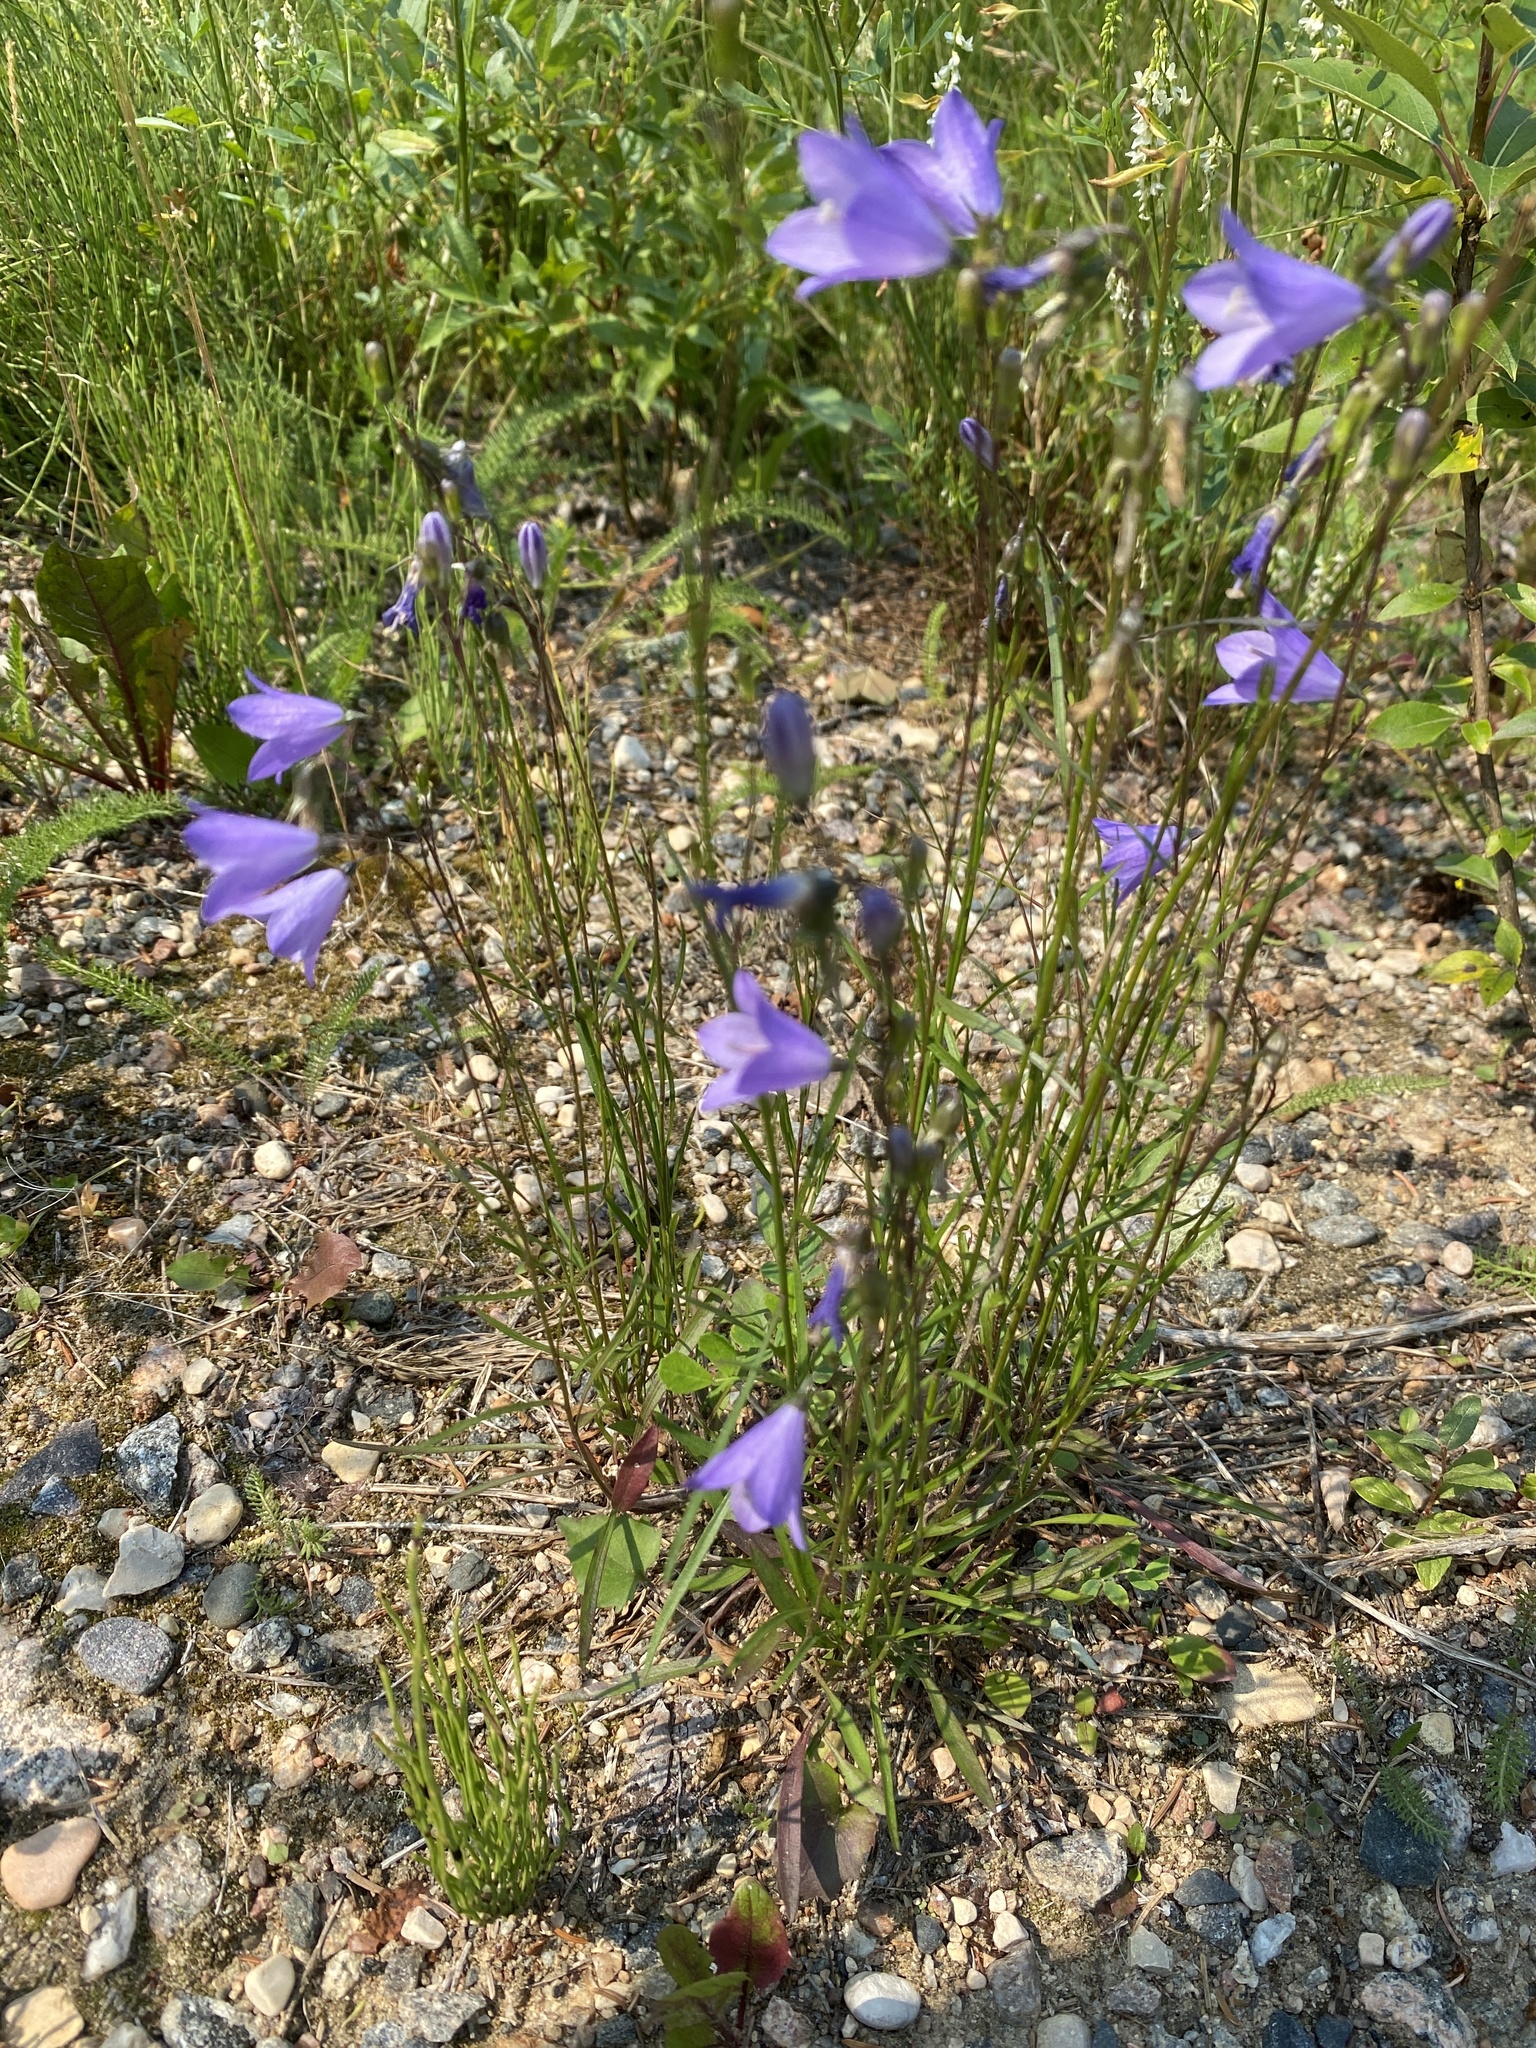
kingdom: Plantae
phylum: Tracheophyta
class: Magnoliopsida
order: Asterales
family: Campanulaceae
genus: Campanula
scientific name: Campanula alaskana
